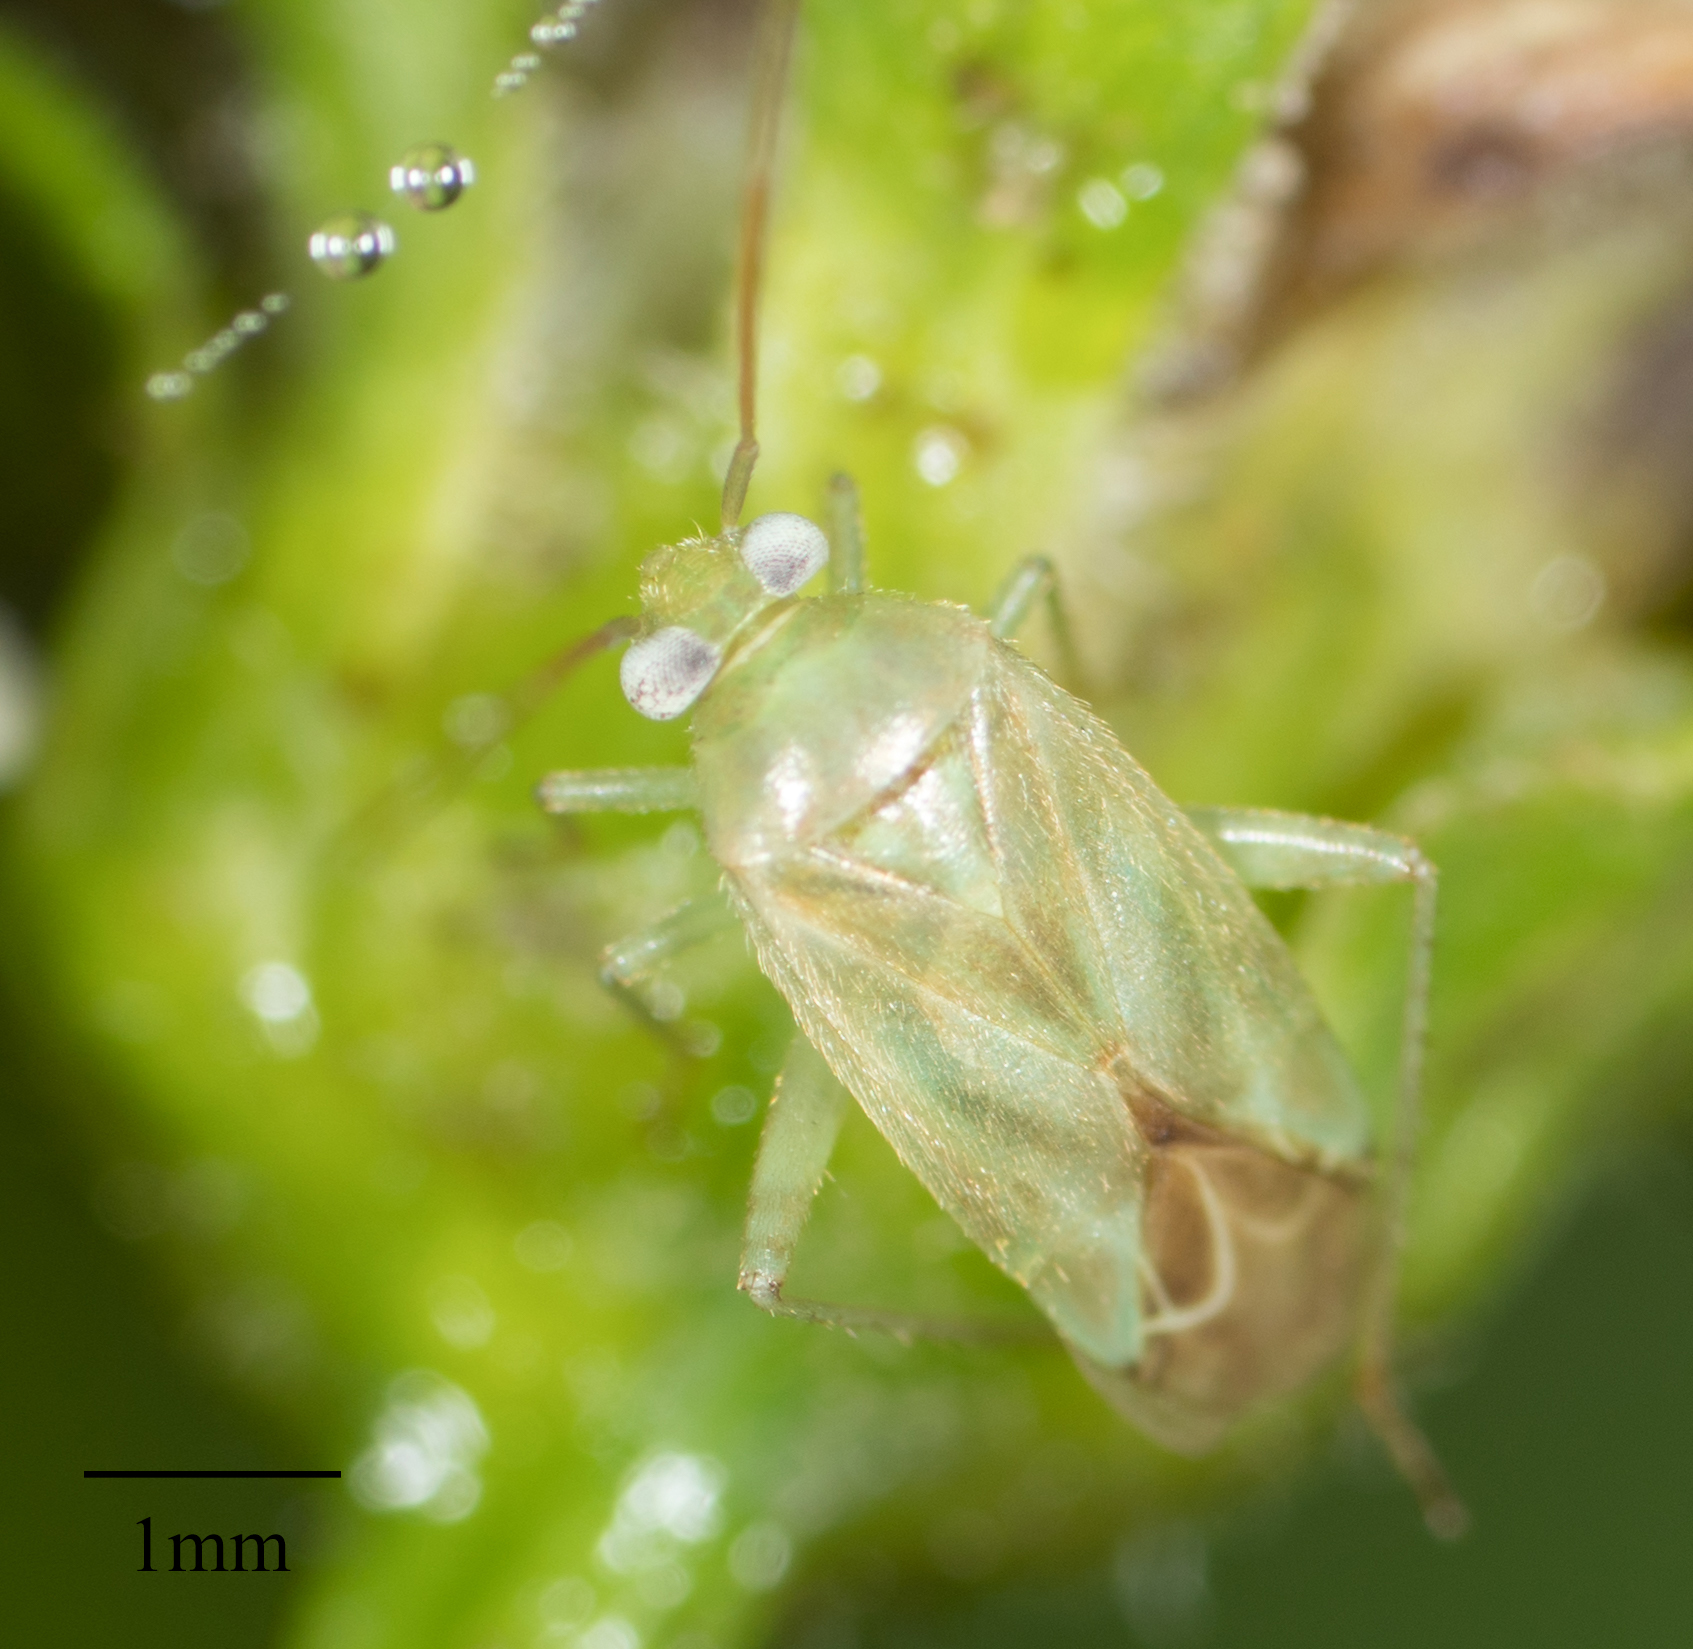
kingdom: Animalia
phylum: Arthropoda
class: Insecta
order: Hemiptera
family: Miridae
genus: Taylorilygus
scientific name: Taylorilygus apicalis
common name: Plant bug
